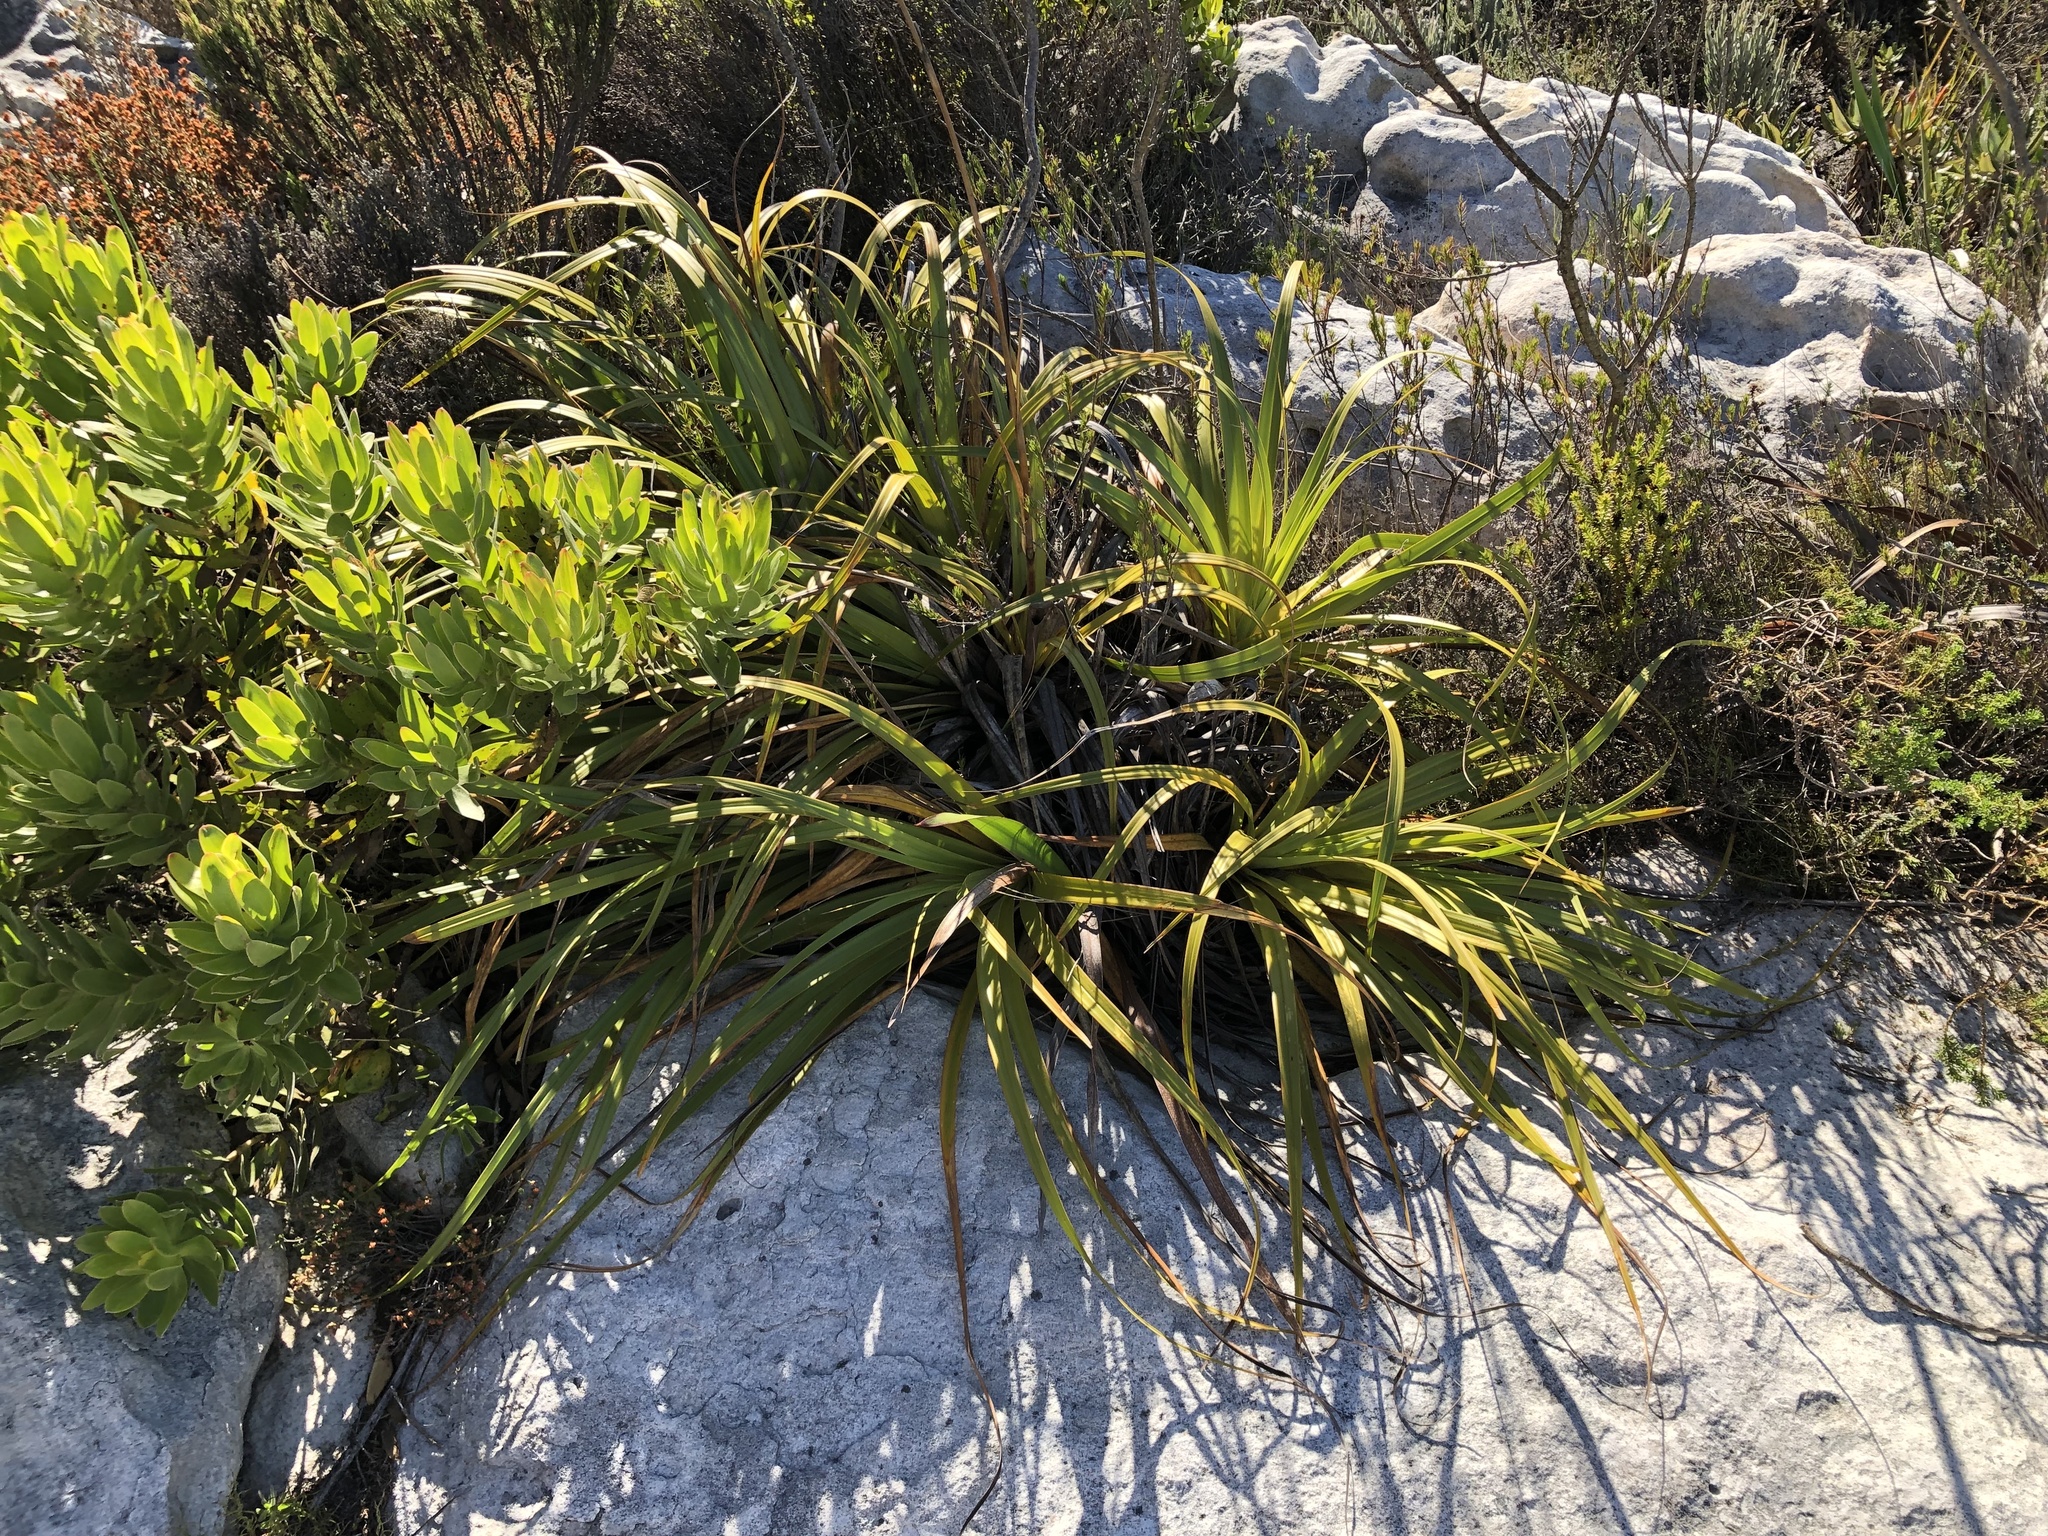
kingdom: Plantae
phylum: Tracheophyta
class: Liliopsida
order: Poales
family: Cyperaceae
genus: Tetraria
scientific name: Tetraria thermalis
